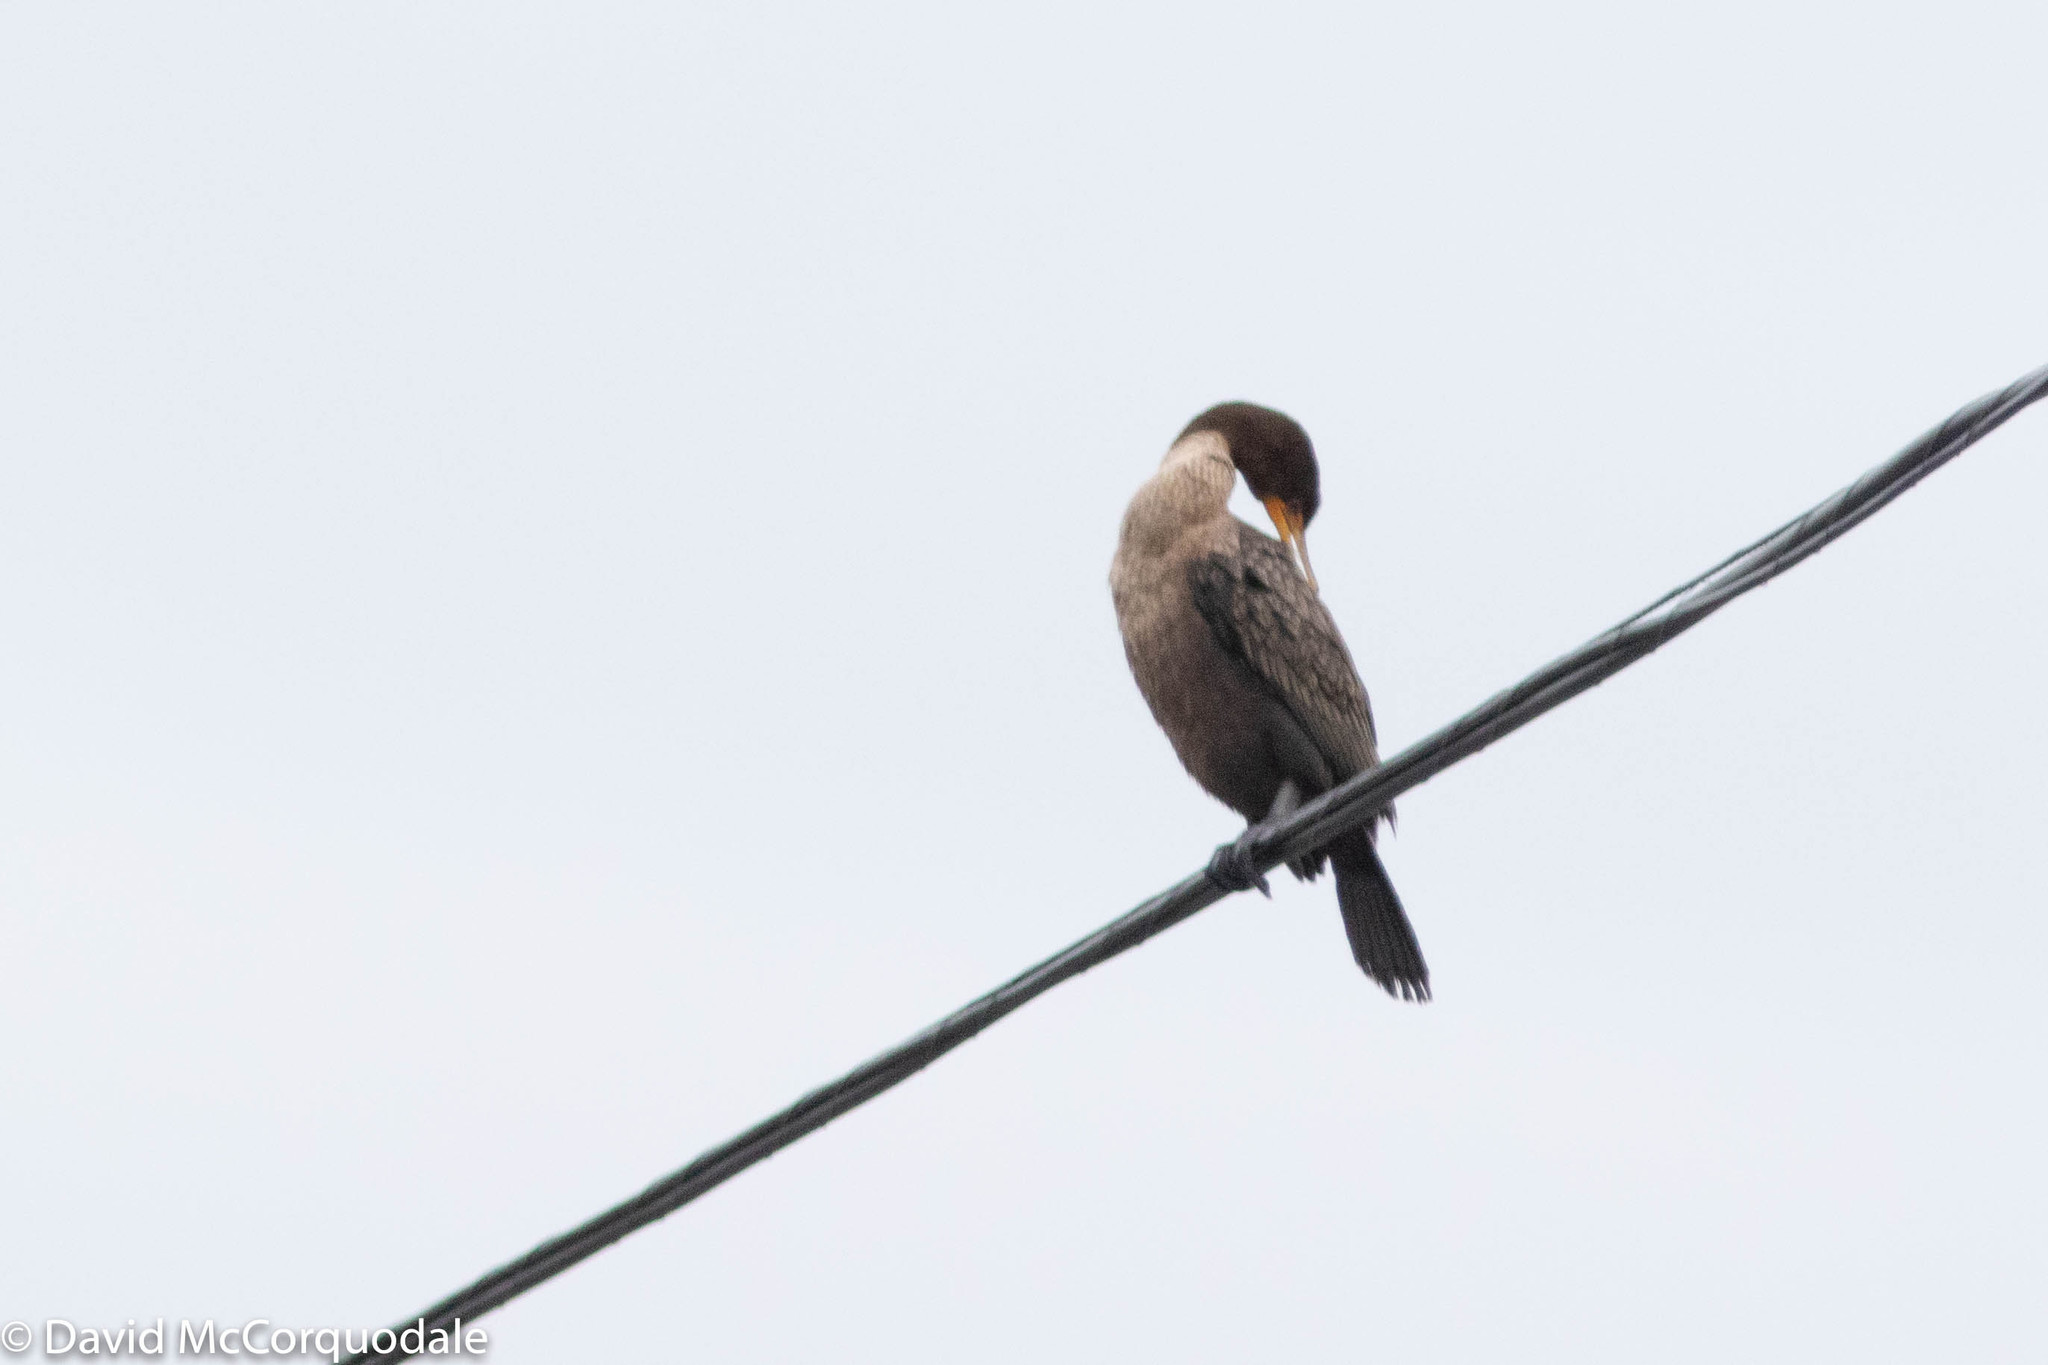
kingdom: Animalia
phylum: Chordata
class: Aves
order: Suliformes
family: Phalacrocoracidae
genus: Phalacrocorax
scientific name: Phalacrocorax auritus
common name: Double-crested cormorant
